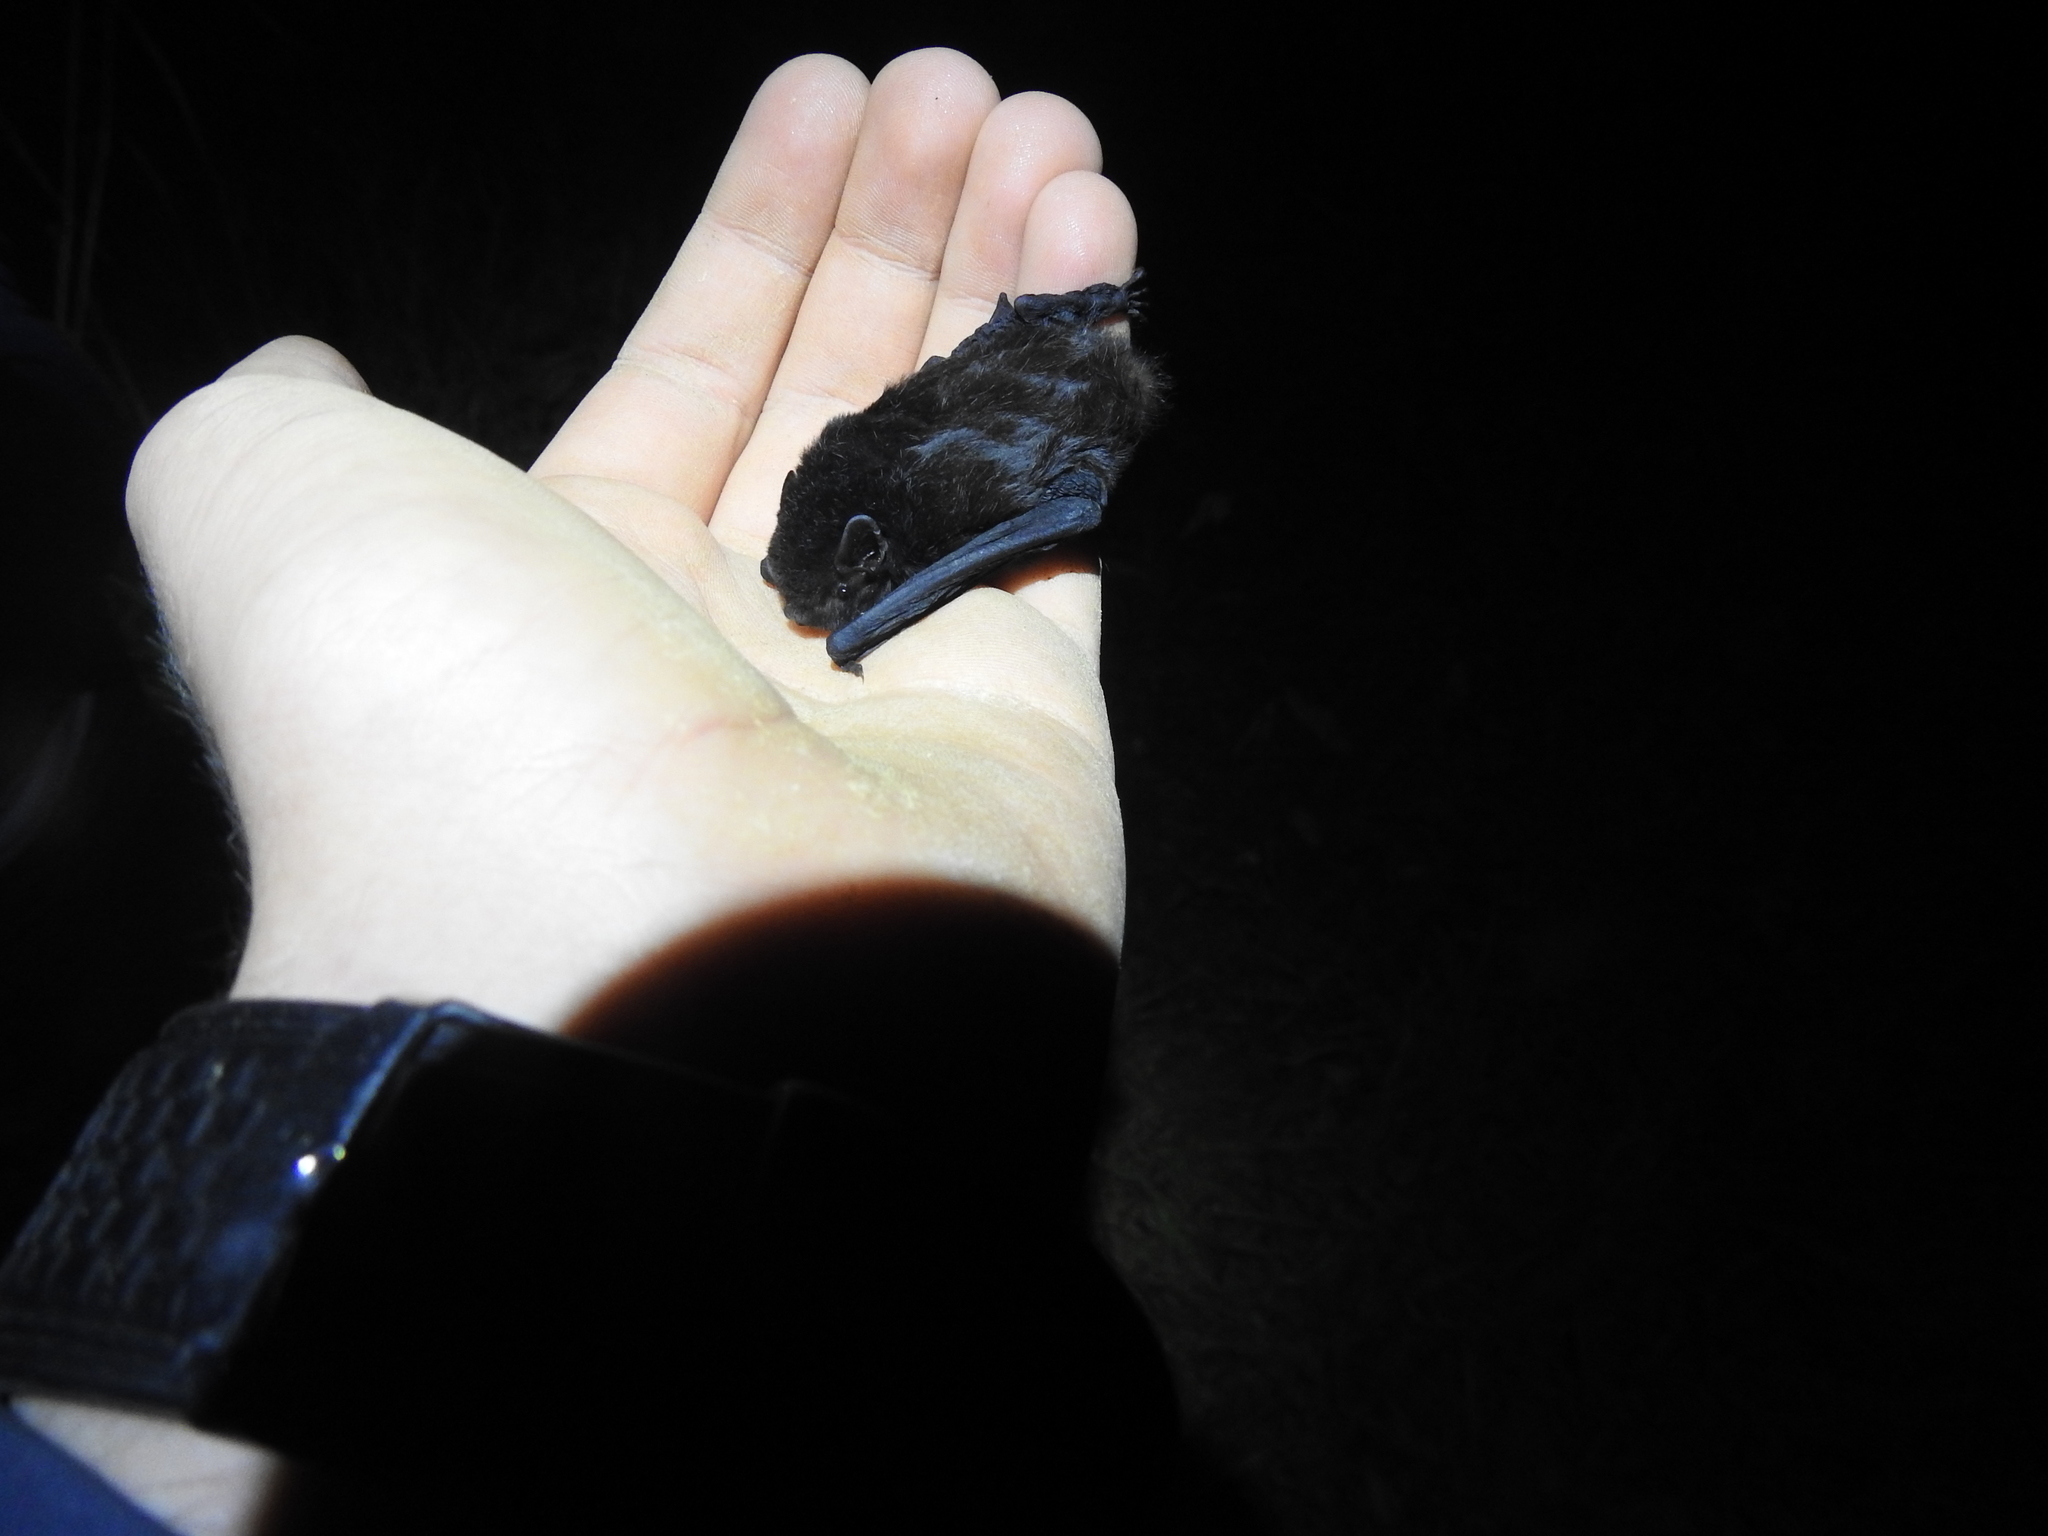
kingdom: Animalia
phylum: Chordata
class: Mammalia
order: Chiroptera
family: Vespertilionidae
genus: Chalinolobus
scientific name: Chalinolobus tuberculatus
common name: Long-tailed wattled bat
